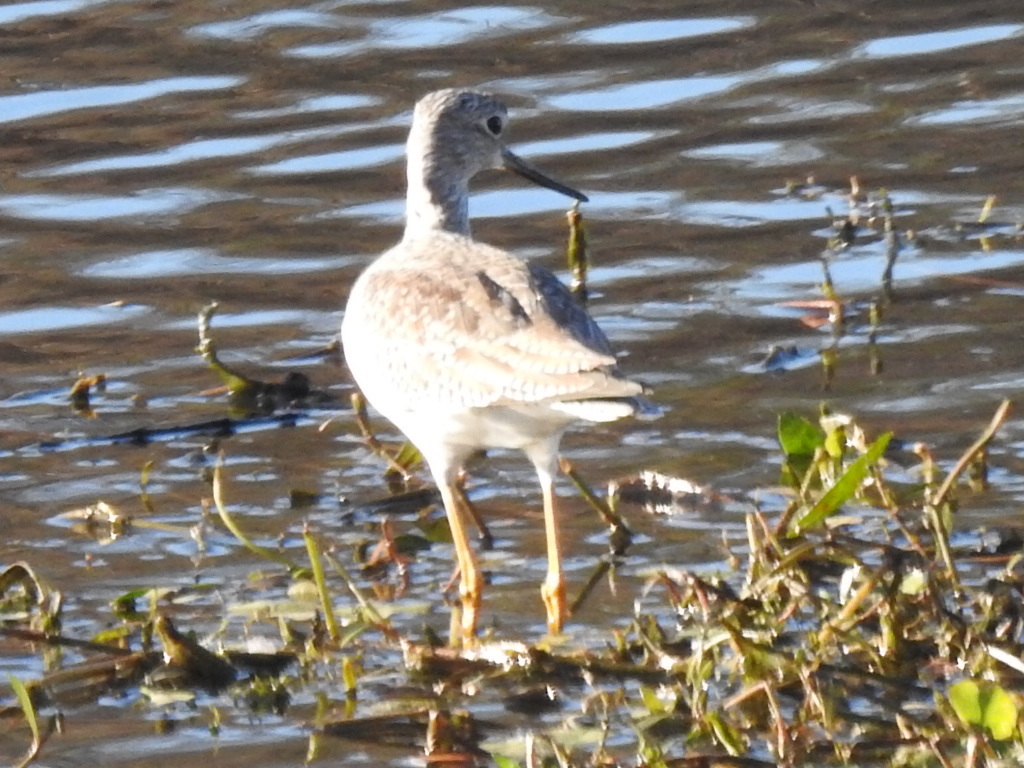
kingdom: Animalia
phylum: Chordata
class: Aves
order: Charadriiformes
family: Scolopacidae
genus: Tringa
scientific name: Tringa melanoleuca
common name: Greater yellowlegs
